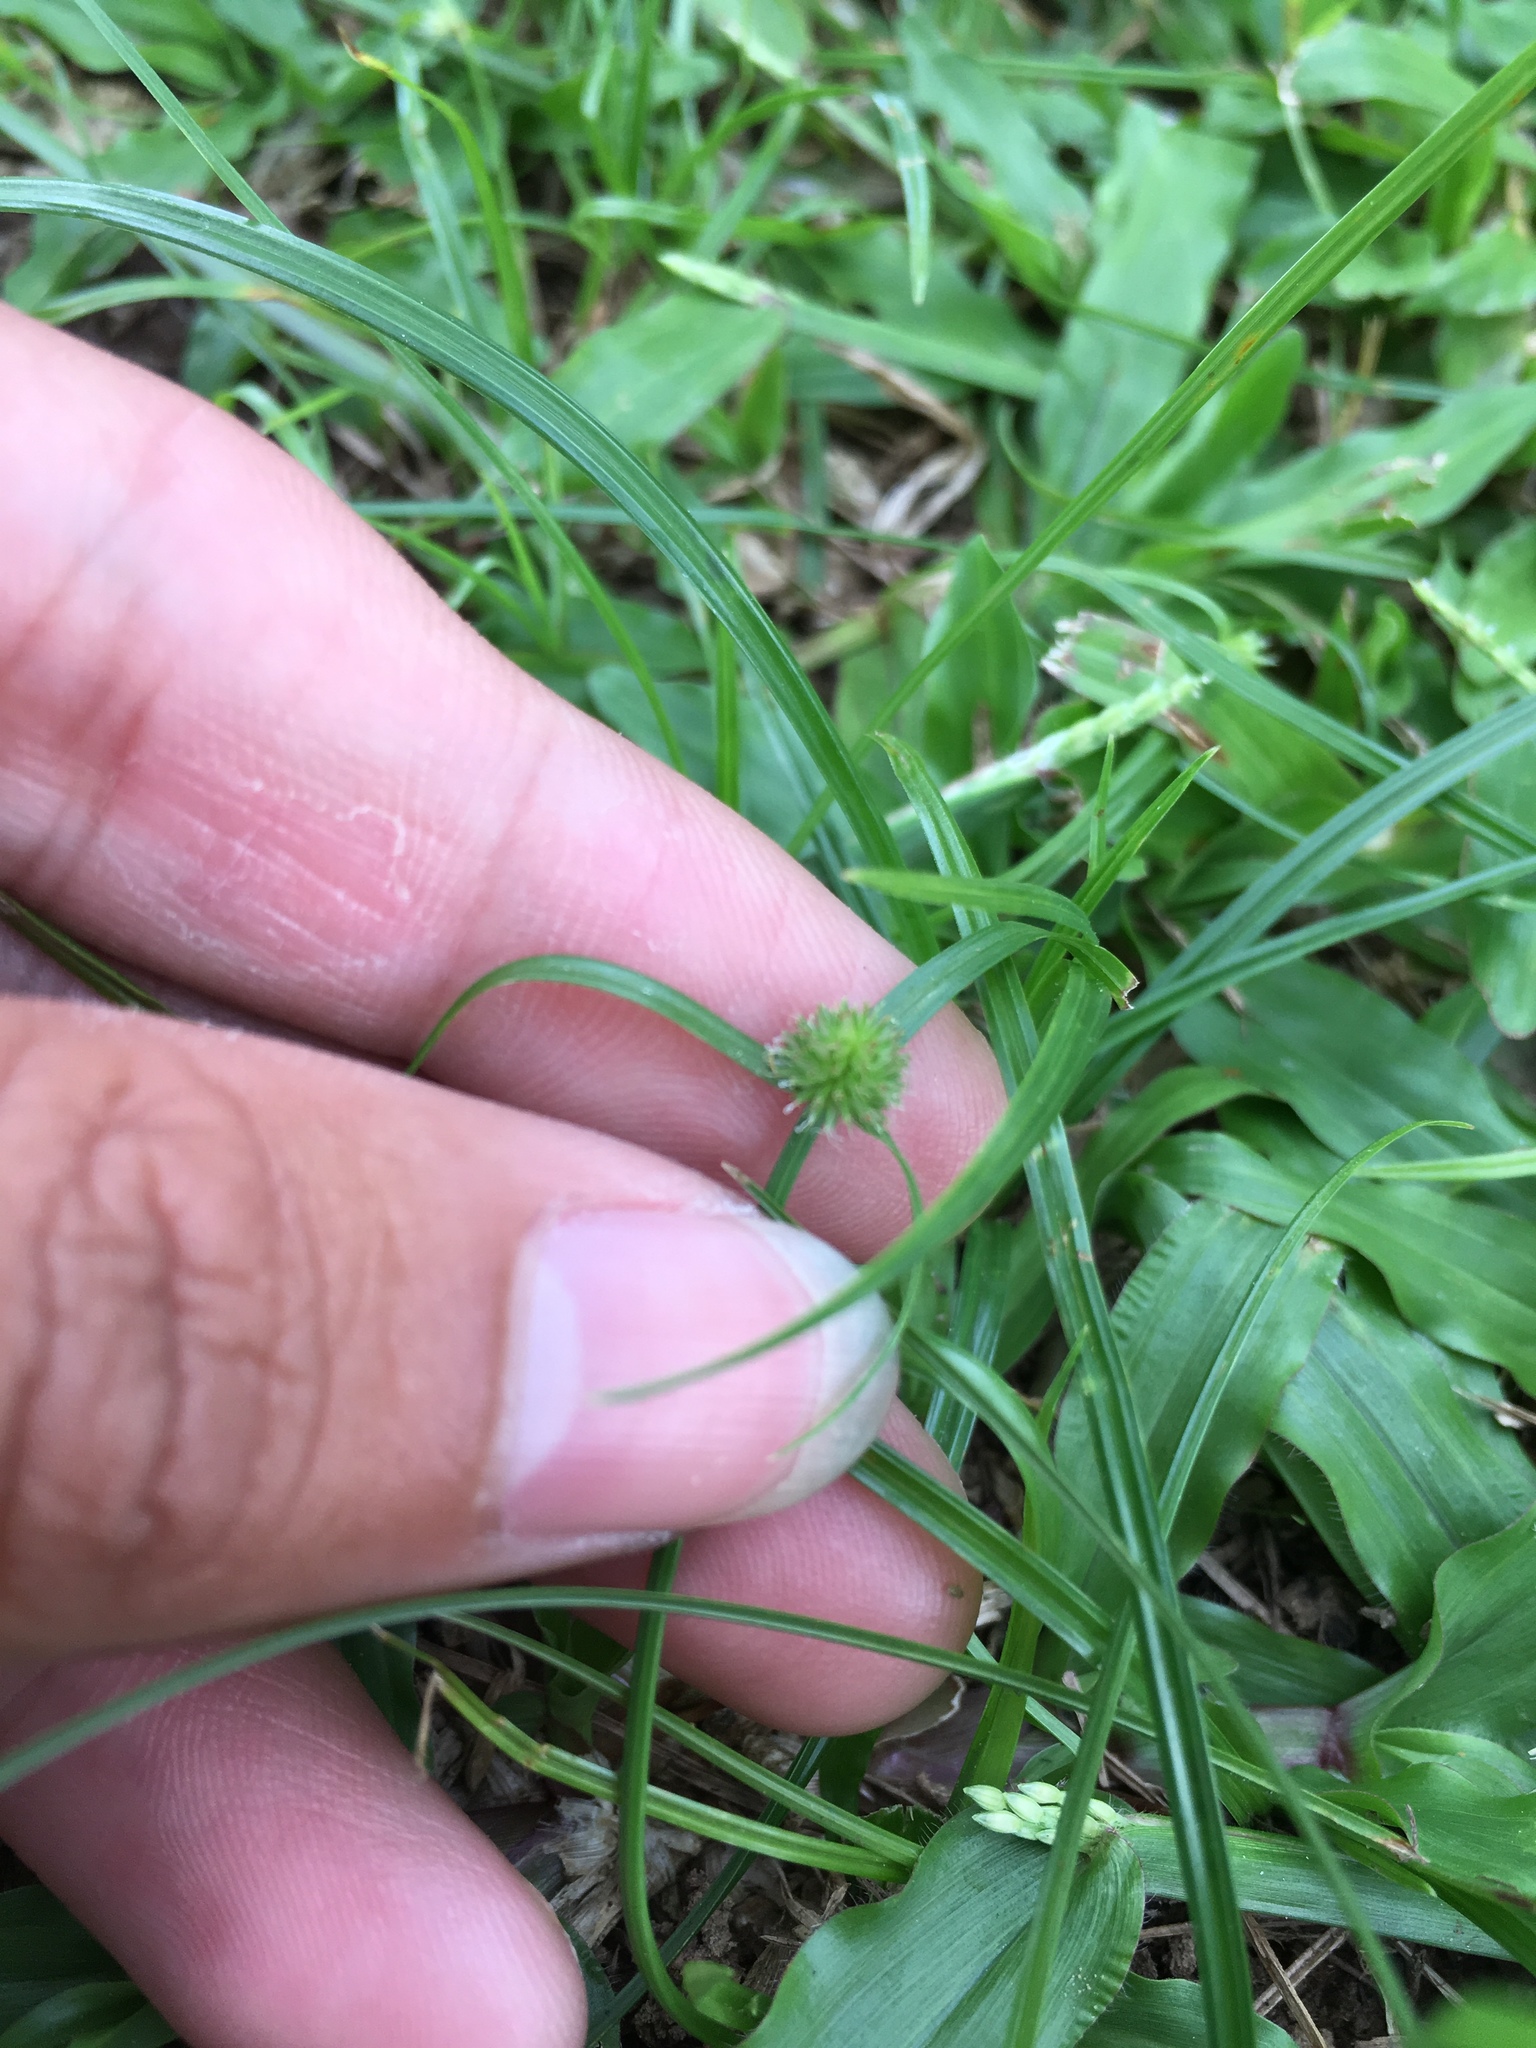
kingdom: Plantae
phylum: Tracheophyta
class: Liliopsida
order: Poales
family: Cyperaceae
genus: Cyperus
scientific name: Cyperus brevifolius
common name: Globe kyllinga
